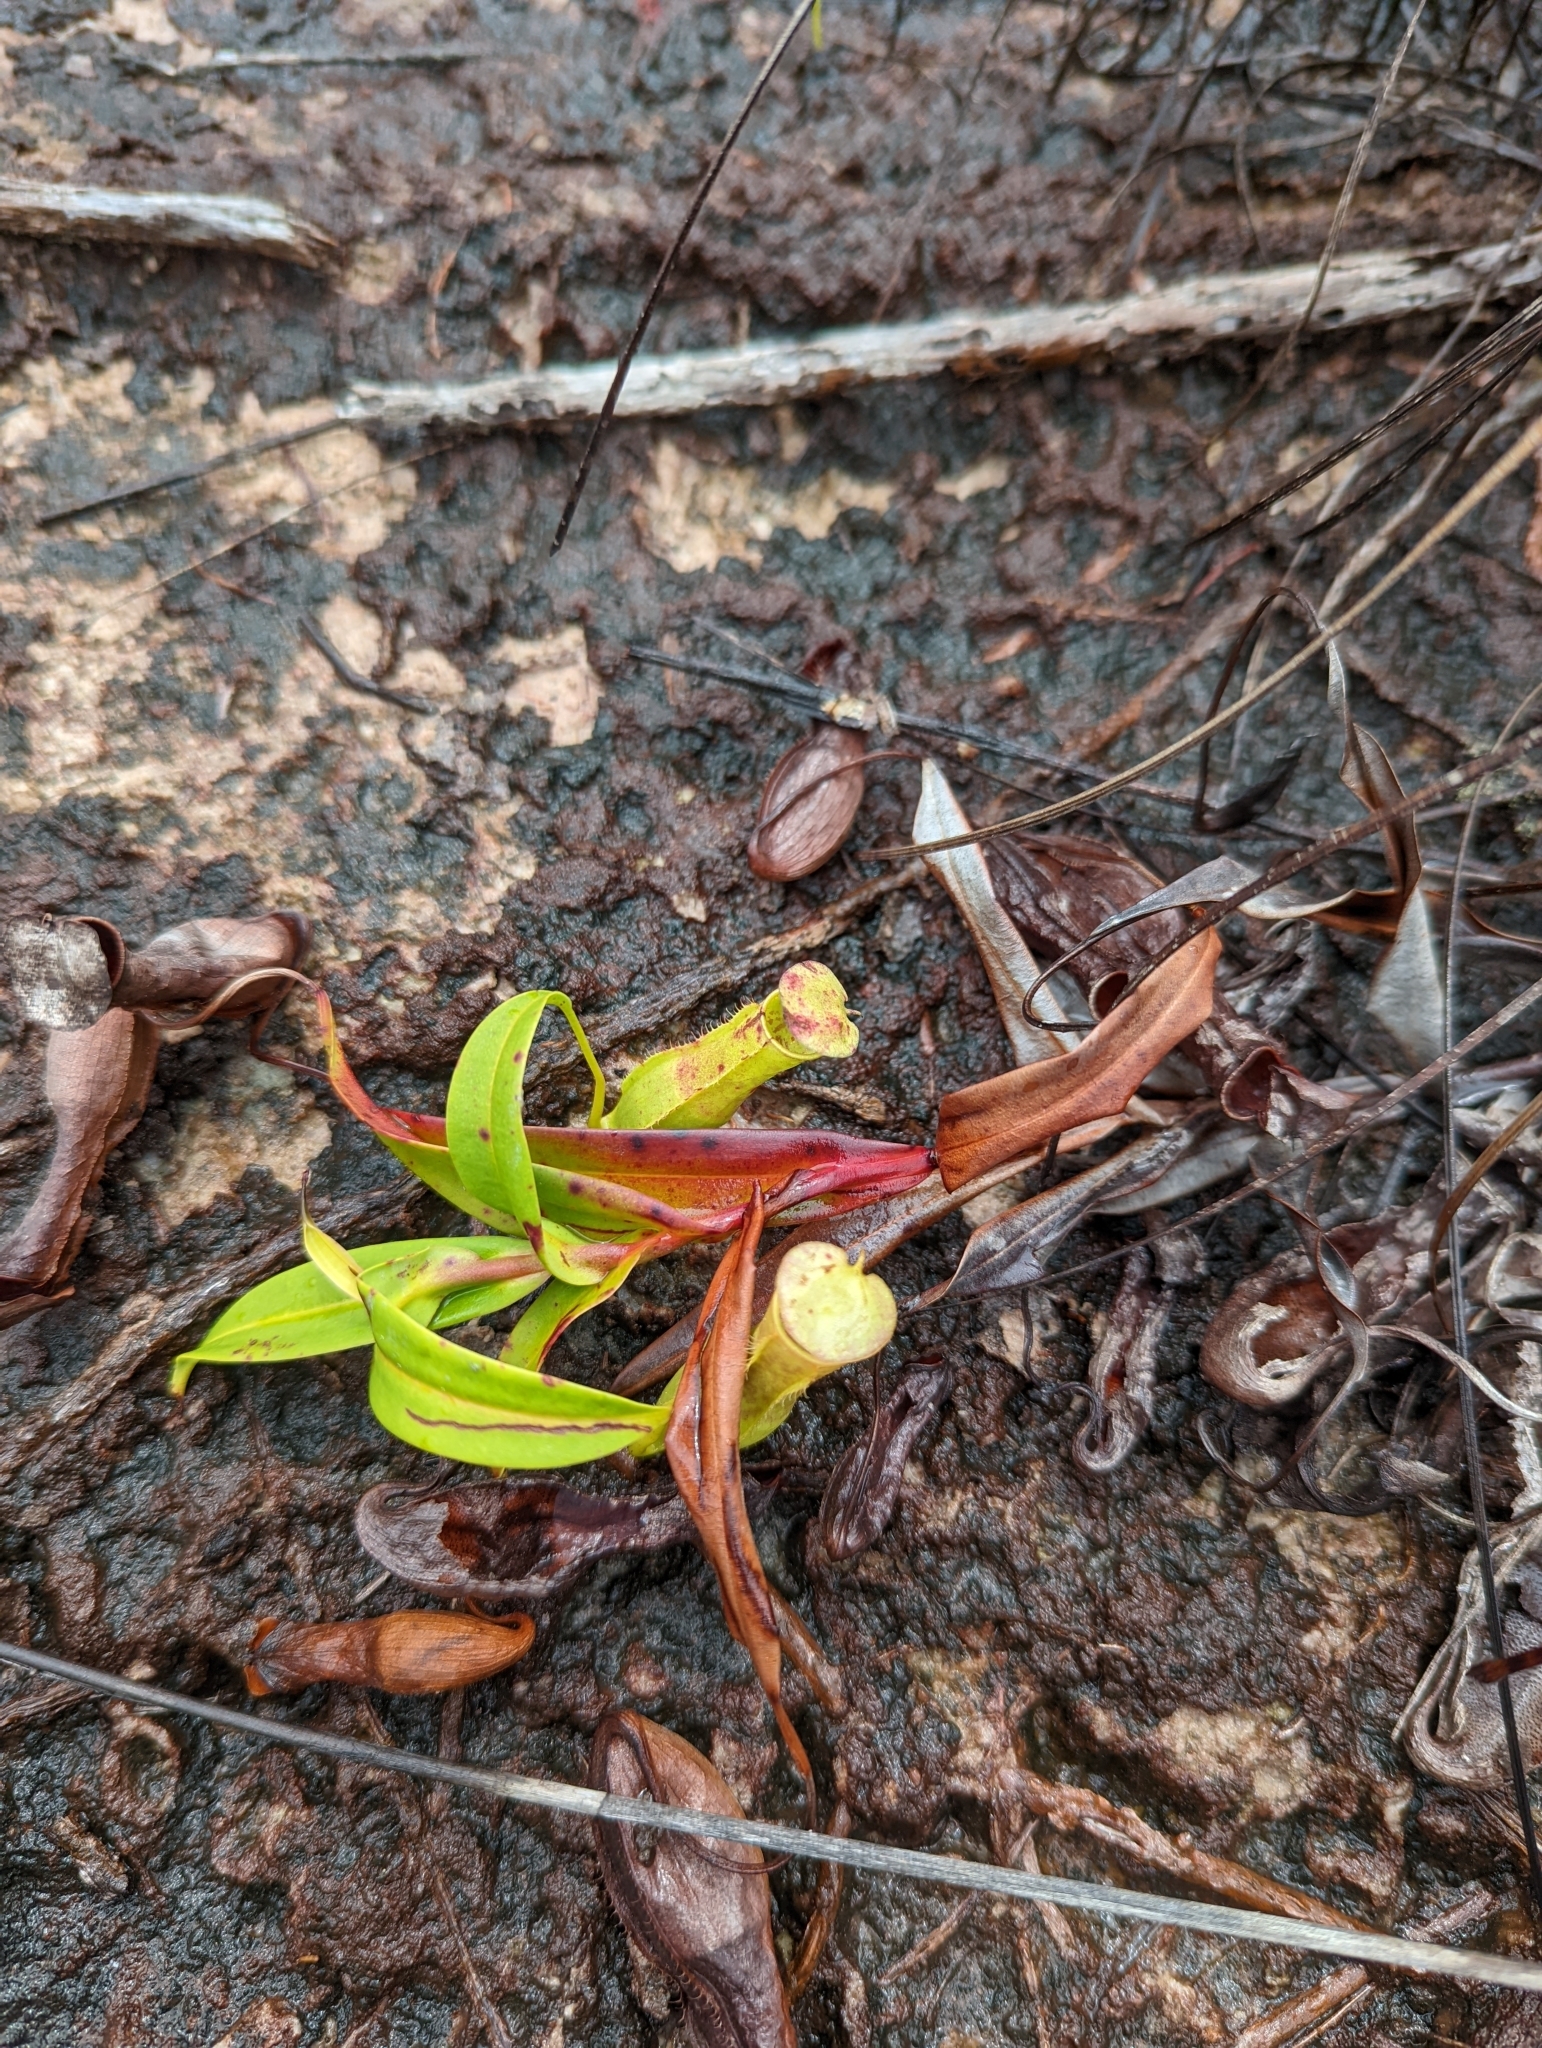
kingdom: Plantae
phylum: Tracheophyta
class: Magnoliopsida
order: Caryophyllales
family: Nepenthaceae
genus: Nepenthes
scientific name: Nepenthes gracilis
